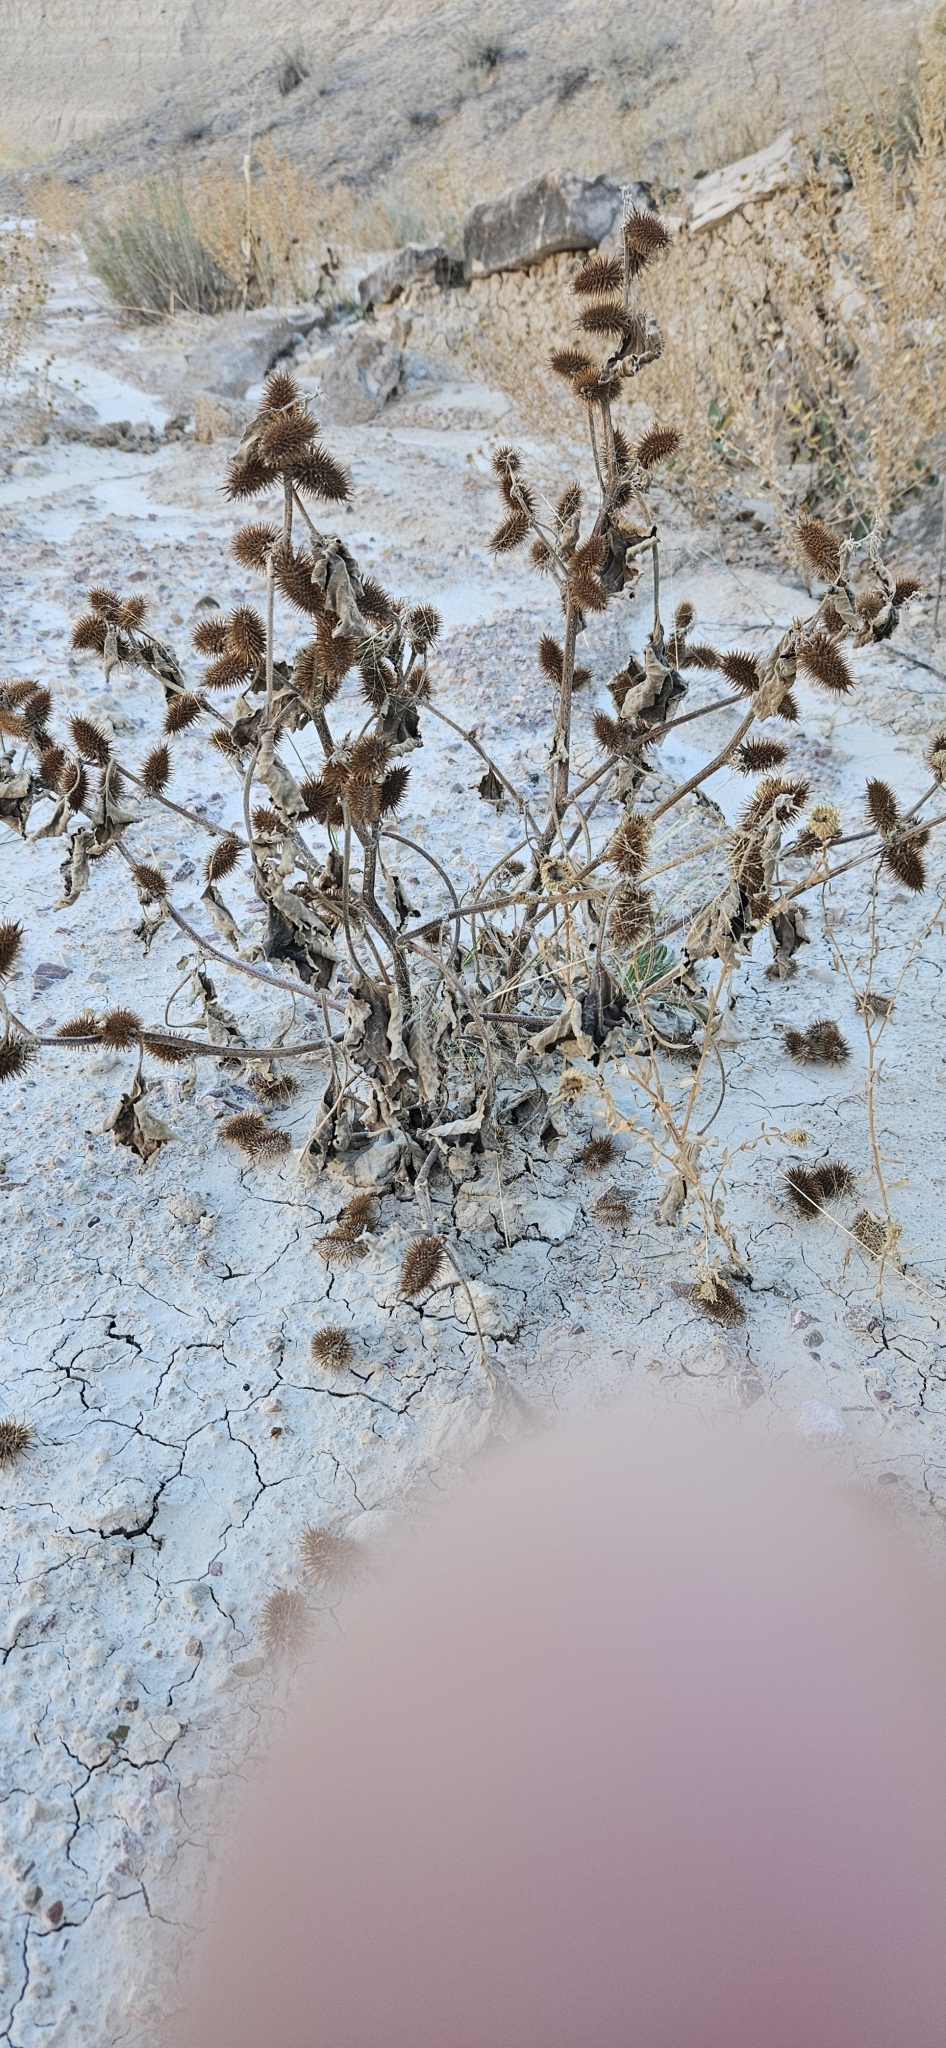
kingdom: Plantae
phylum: Tracheophyta
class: Magnoliopsida
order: Asterales
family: Asteraceae
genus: Xanthium
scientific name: Xanthium strumarium
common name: Rough cocklebur
